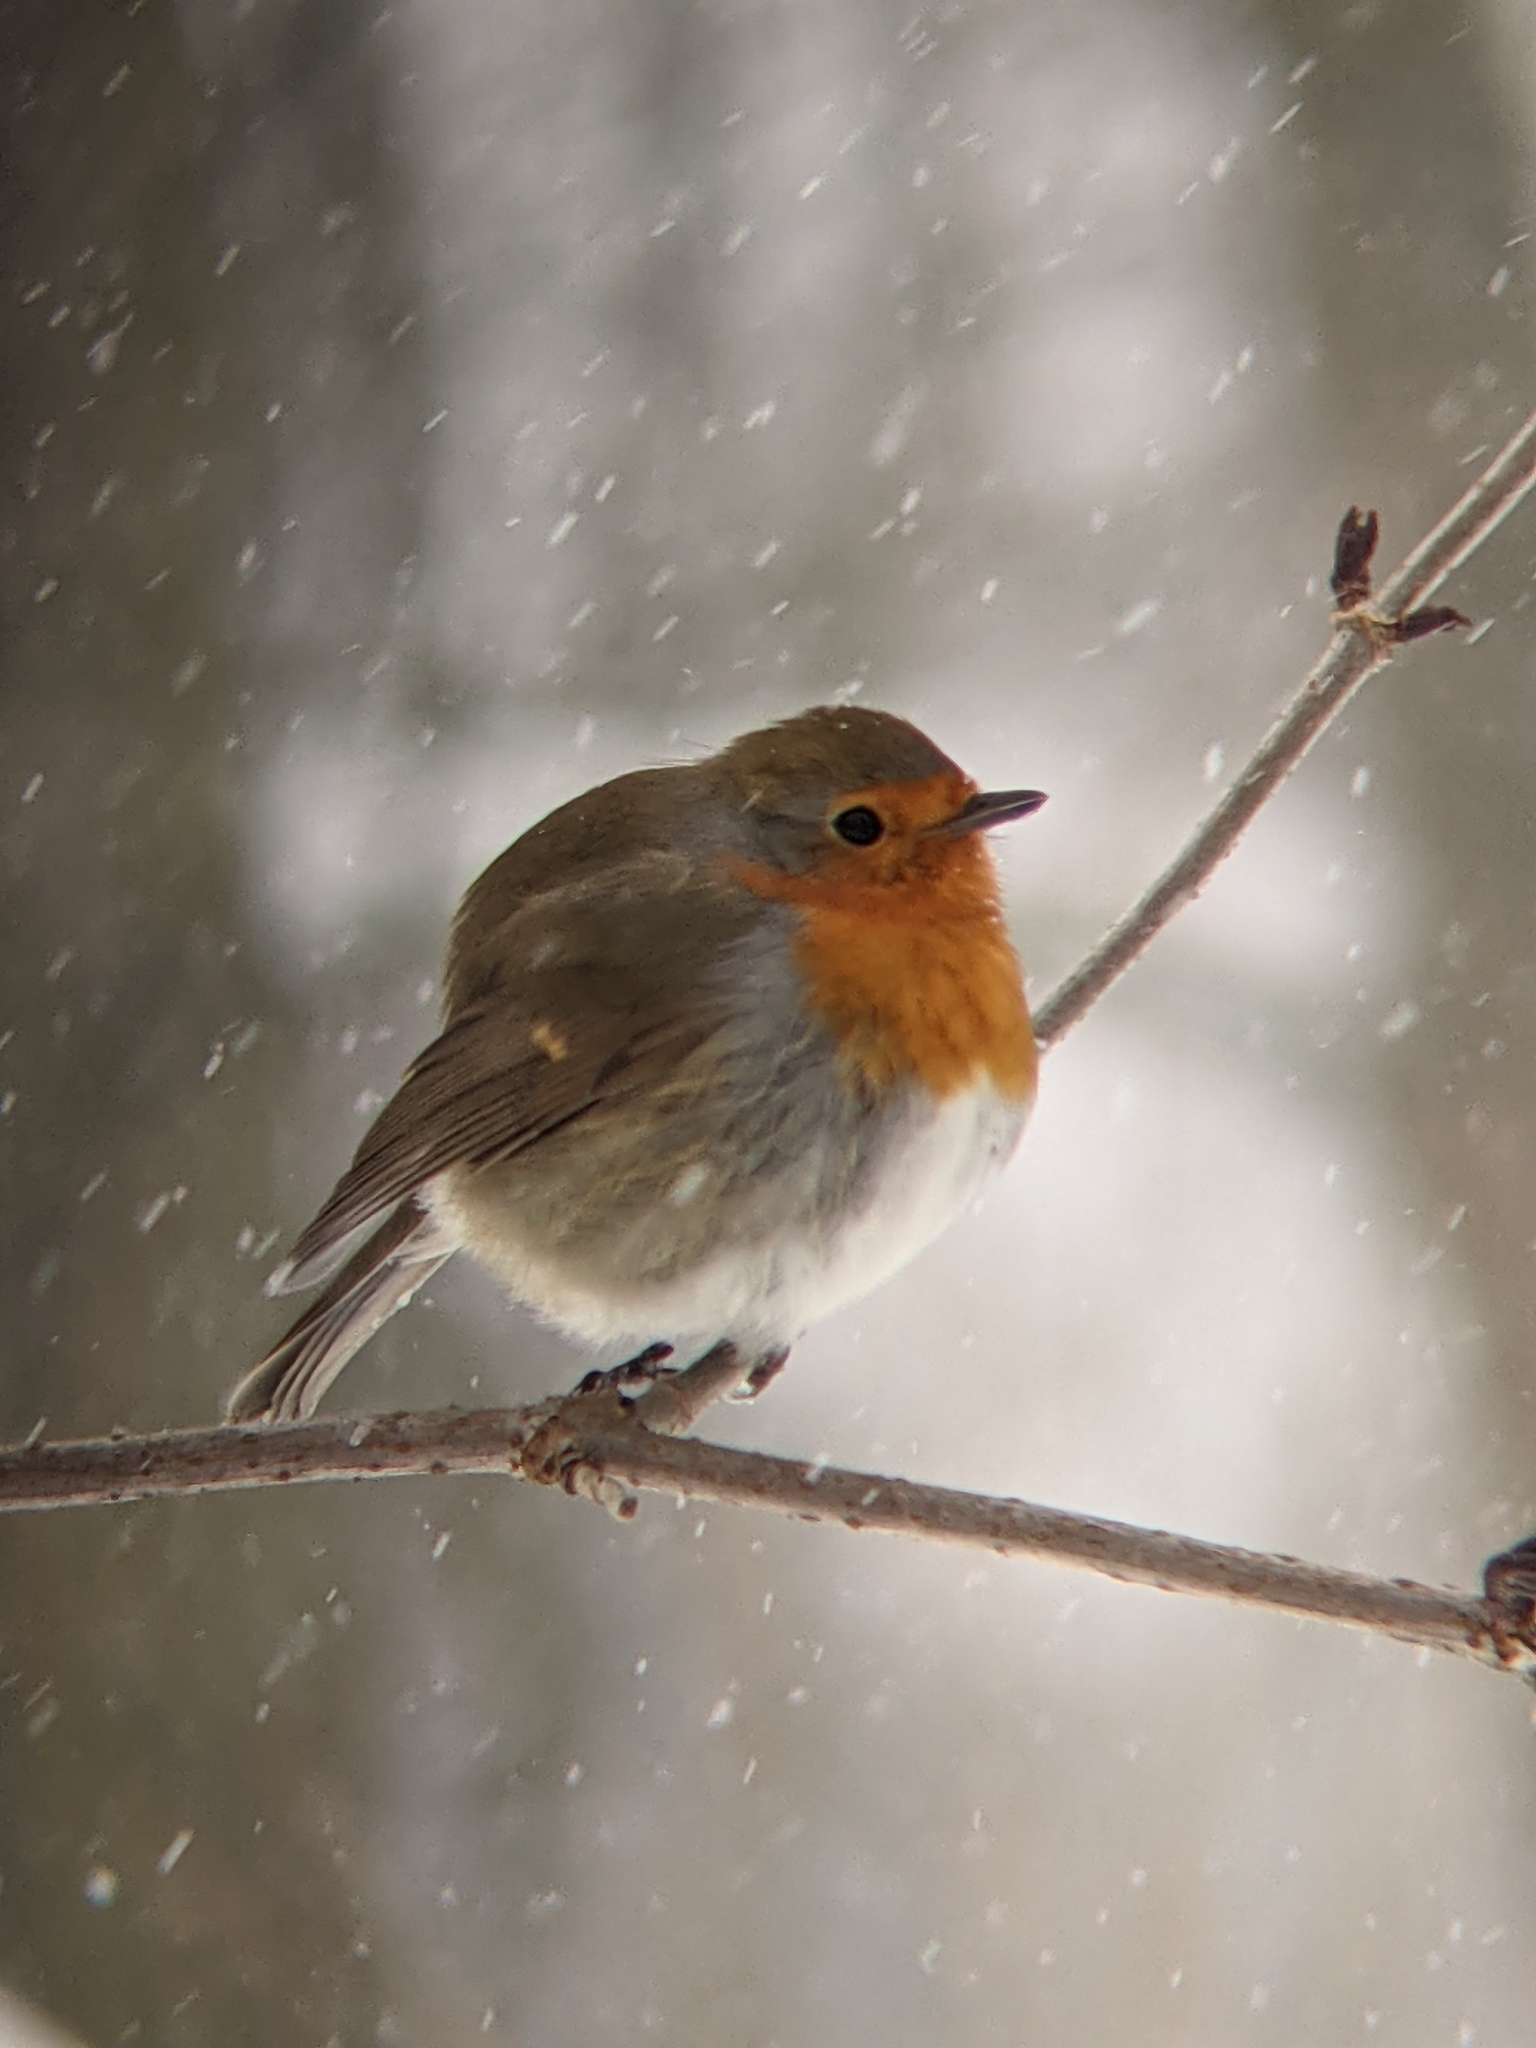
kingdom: Animalia
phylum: Chordata
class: Aves
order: Passeriformes
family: Muscicapidae
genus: Erithacus
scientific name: Erithacus rubecula
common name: European robin
